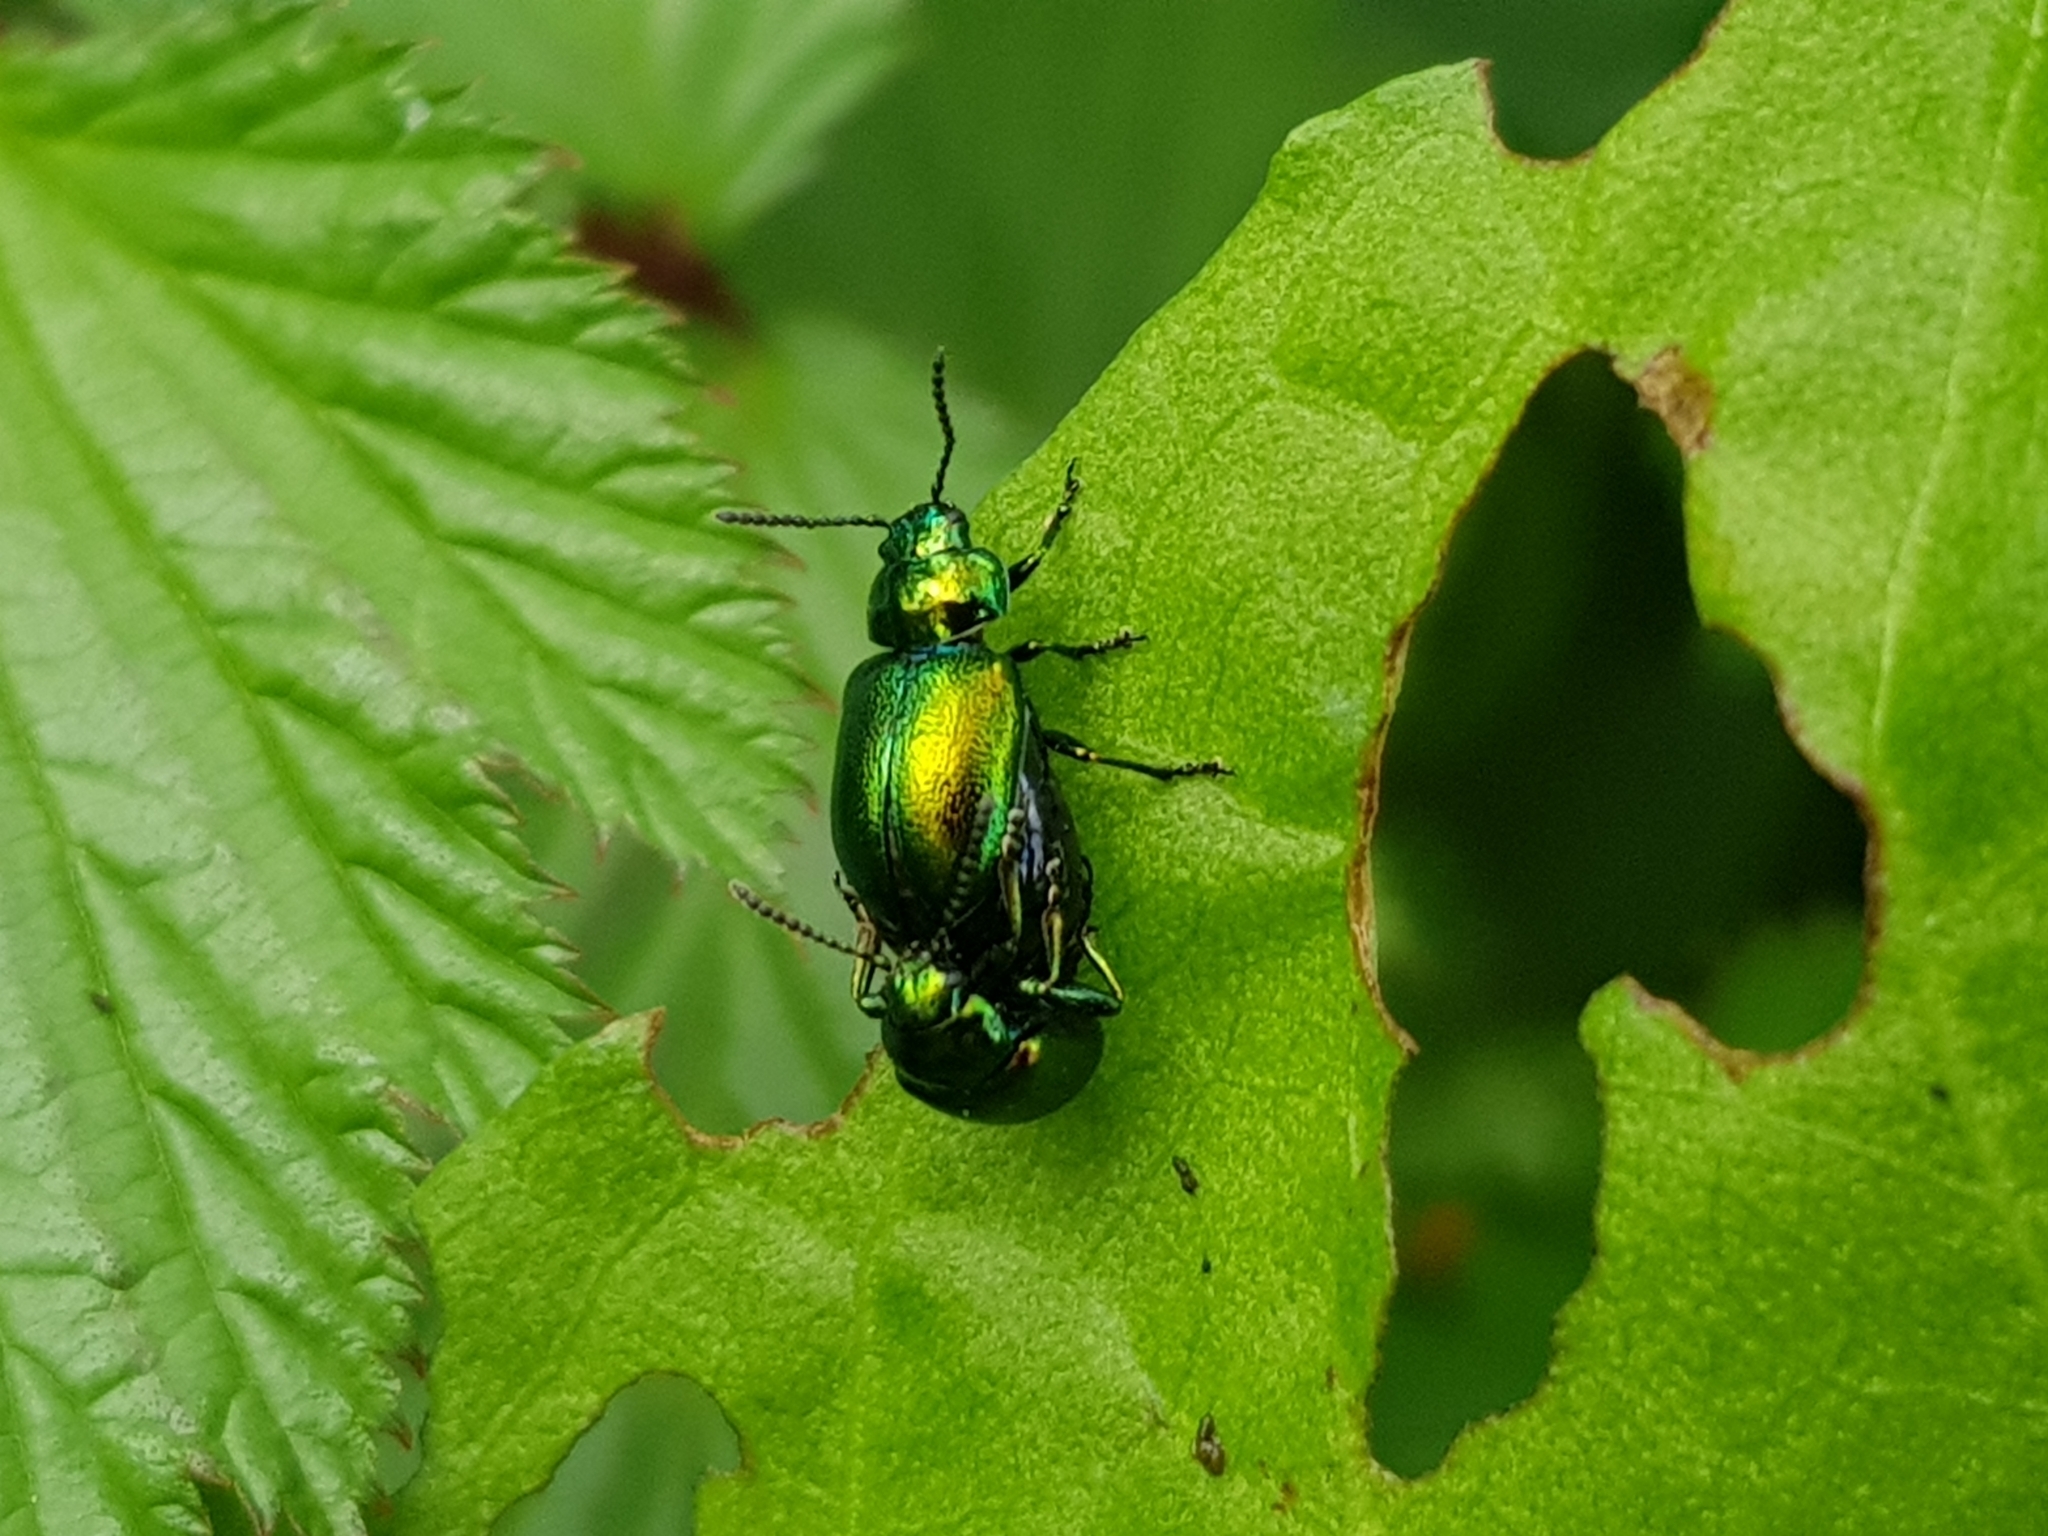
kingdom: Animalia
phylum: Arthropoda
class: Insecta
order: Coleoptera
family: Chrysomelidae
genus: Gastrophysa
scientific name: Gastrophysa viridula
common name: Green dock beetle
